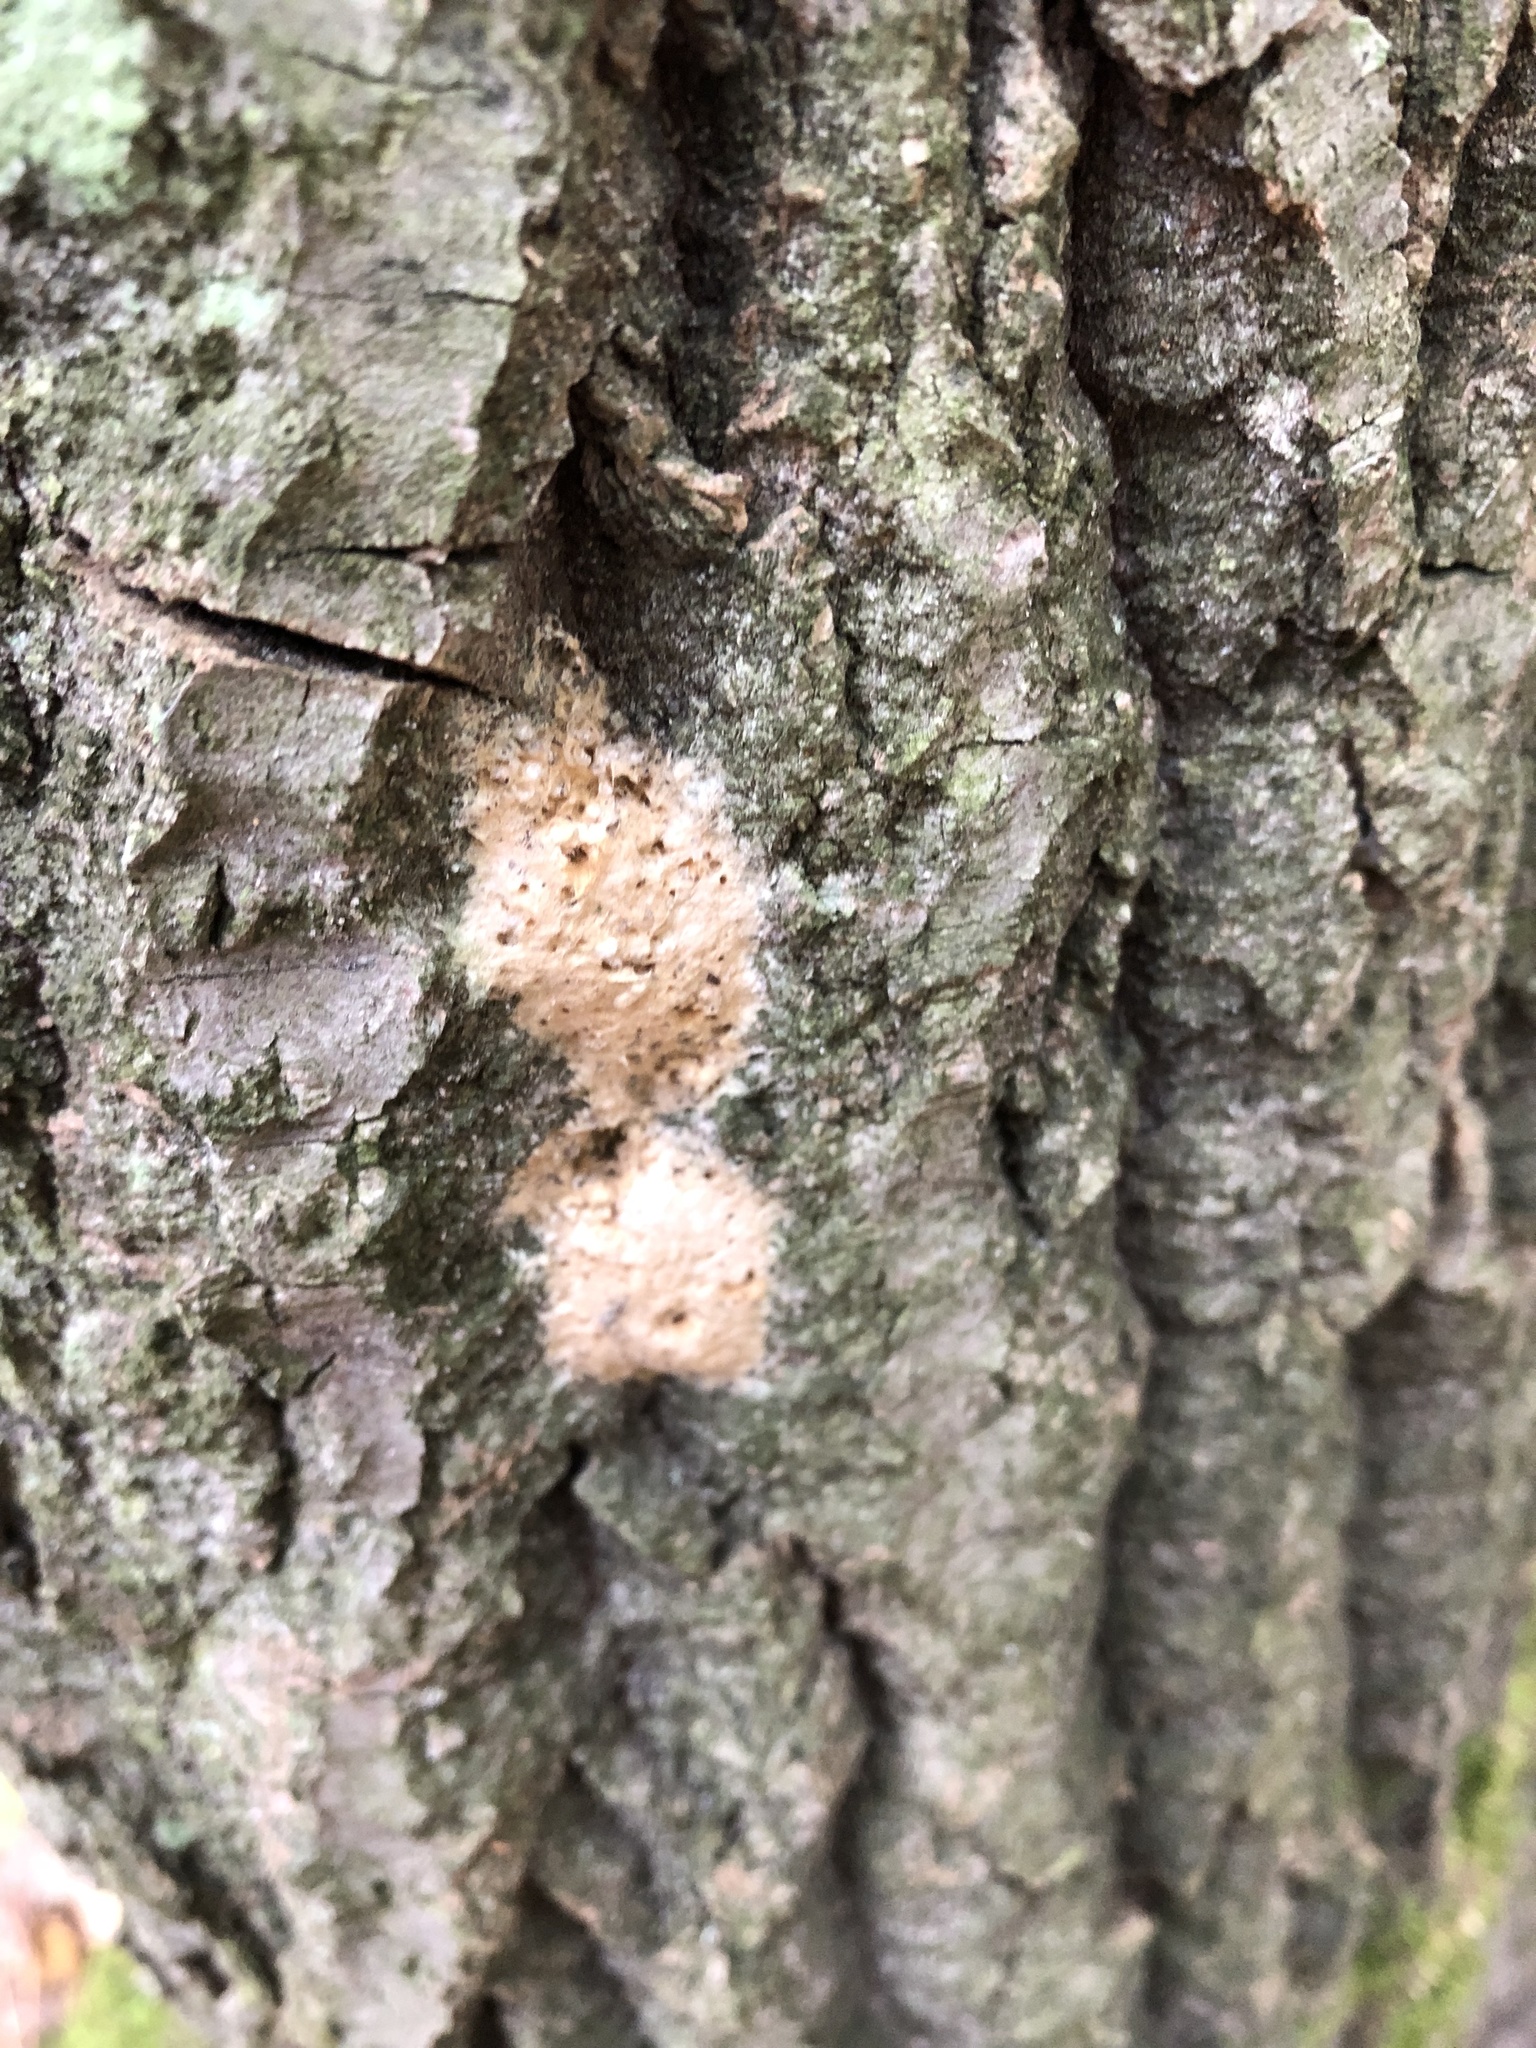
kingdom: Animalia
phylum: Arthropoda
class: Insecta
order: Lepidoptera
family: Erebidae
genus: Lymantria
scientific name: Lymantria dispar
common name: Gypsy moth
